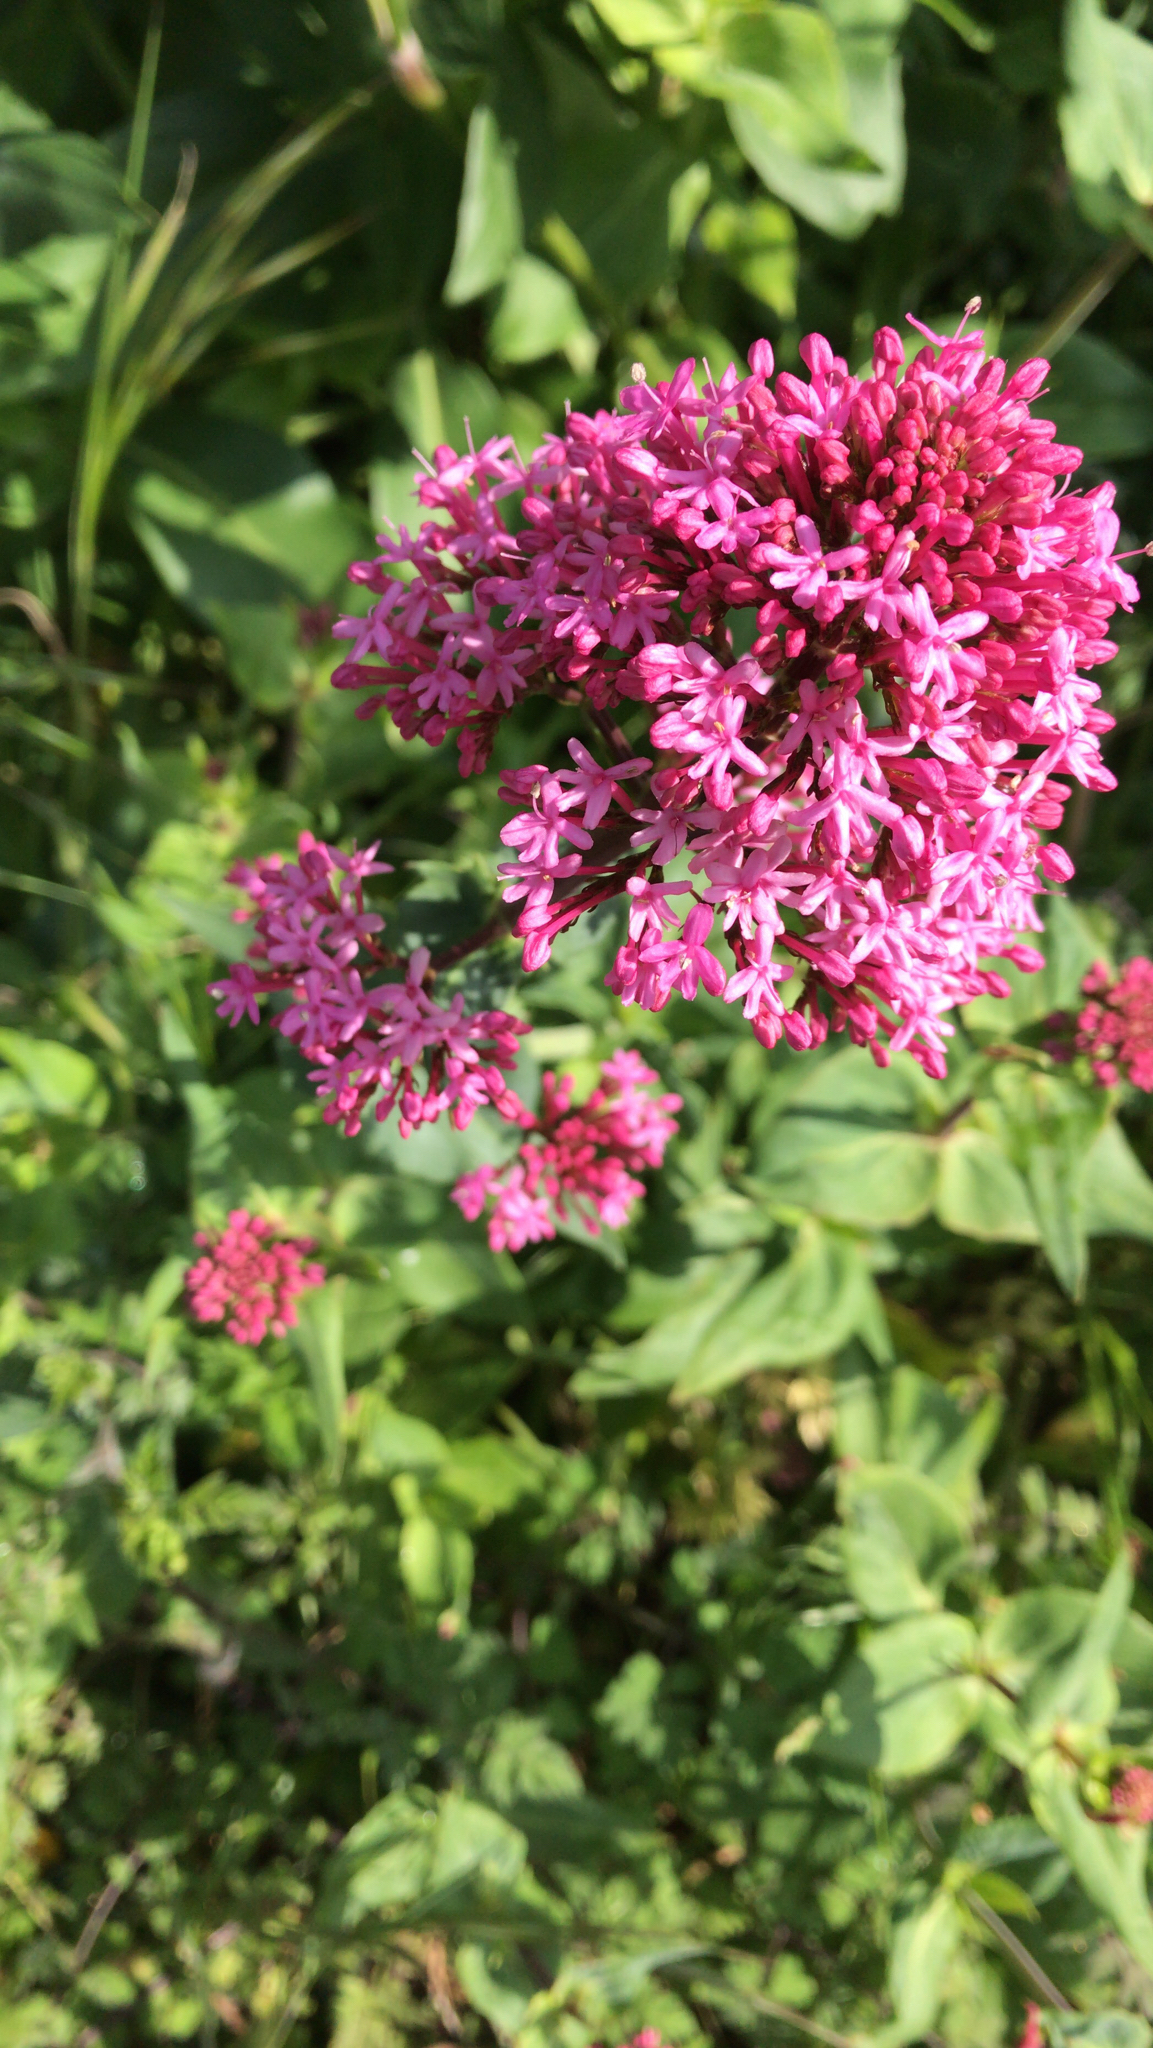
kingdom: Plantae
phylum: Tracheophyta
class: Magnoliopsida
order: Dipsacales
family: Caprifoliaceae
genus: Centranthus
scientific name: Centranthus ruber
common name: Red valerian
